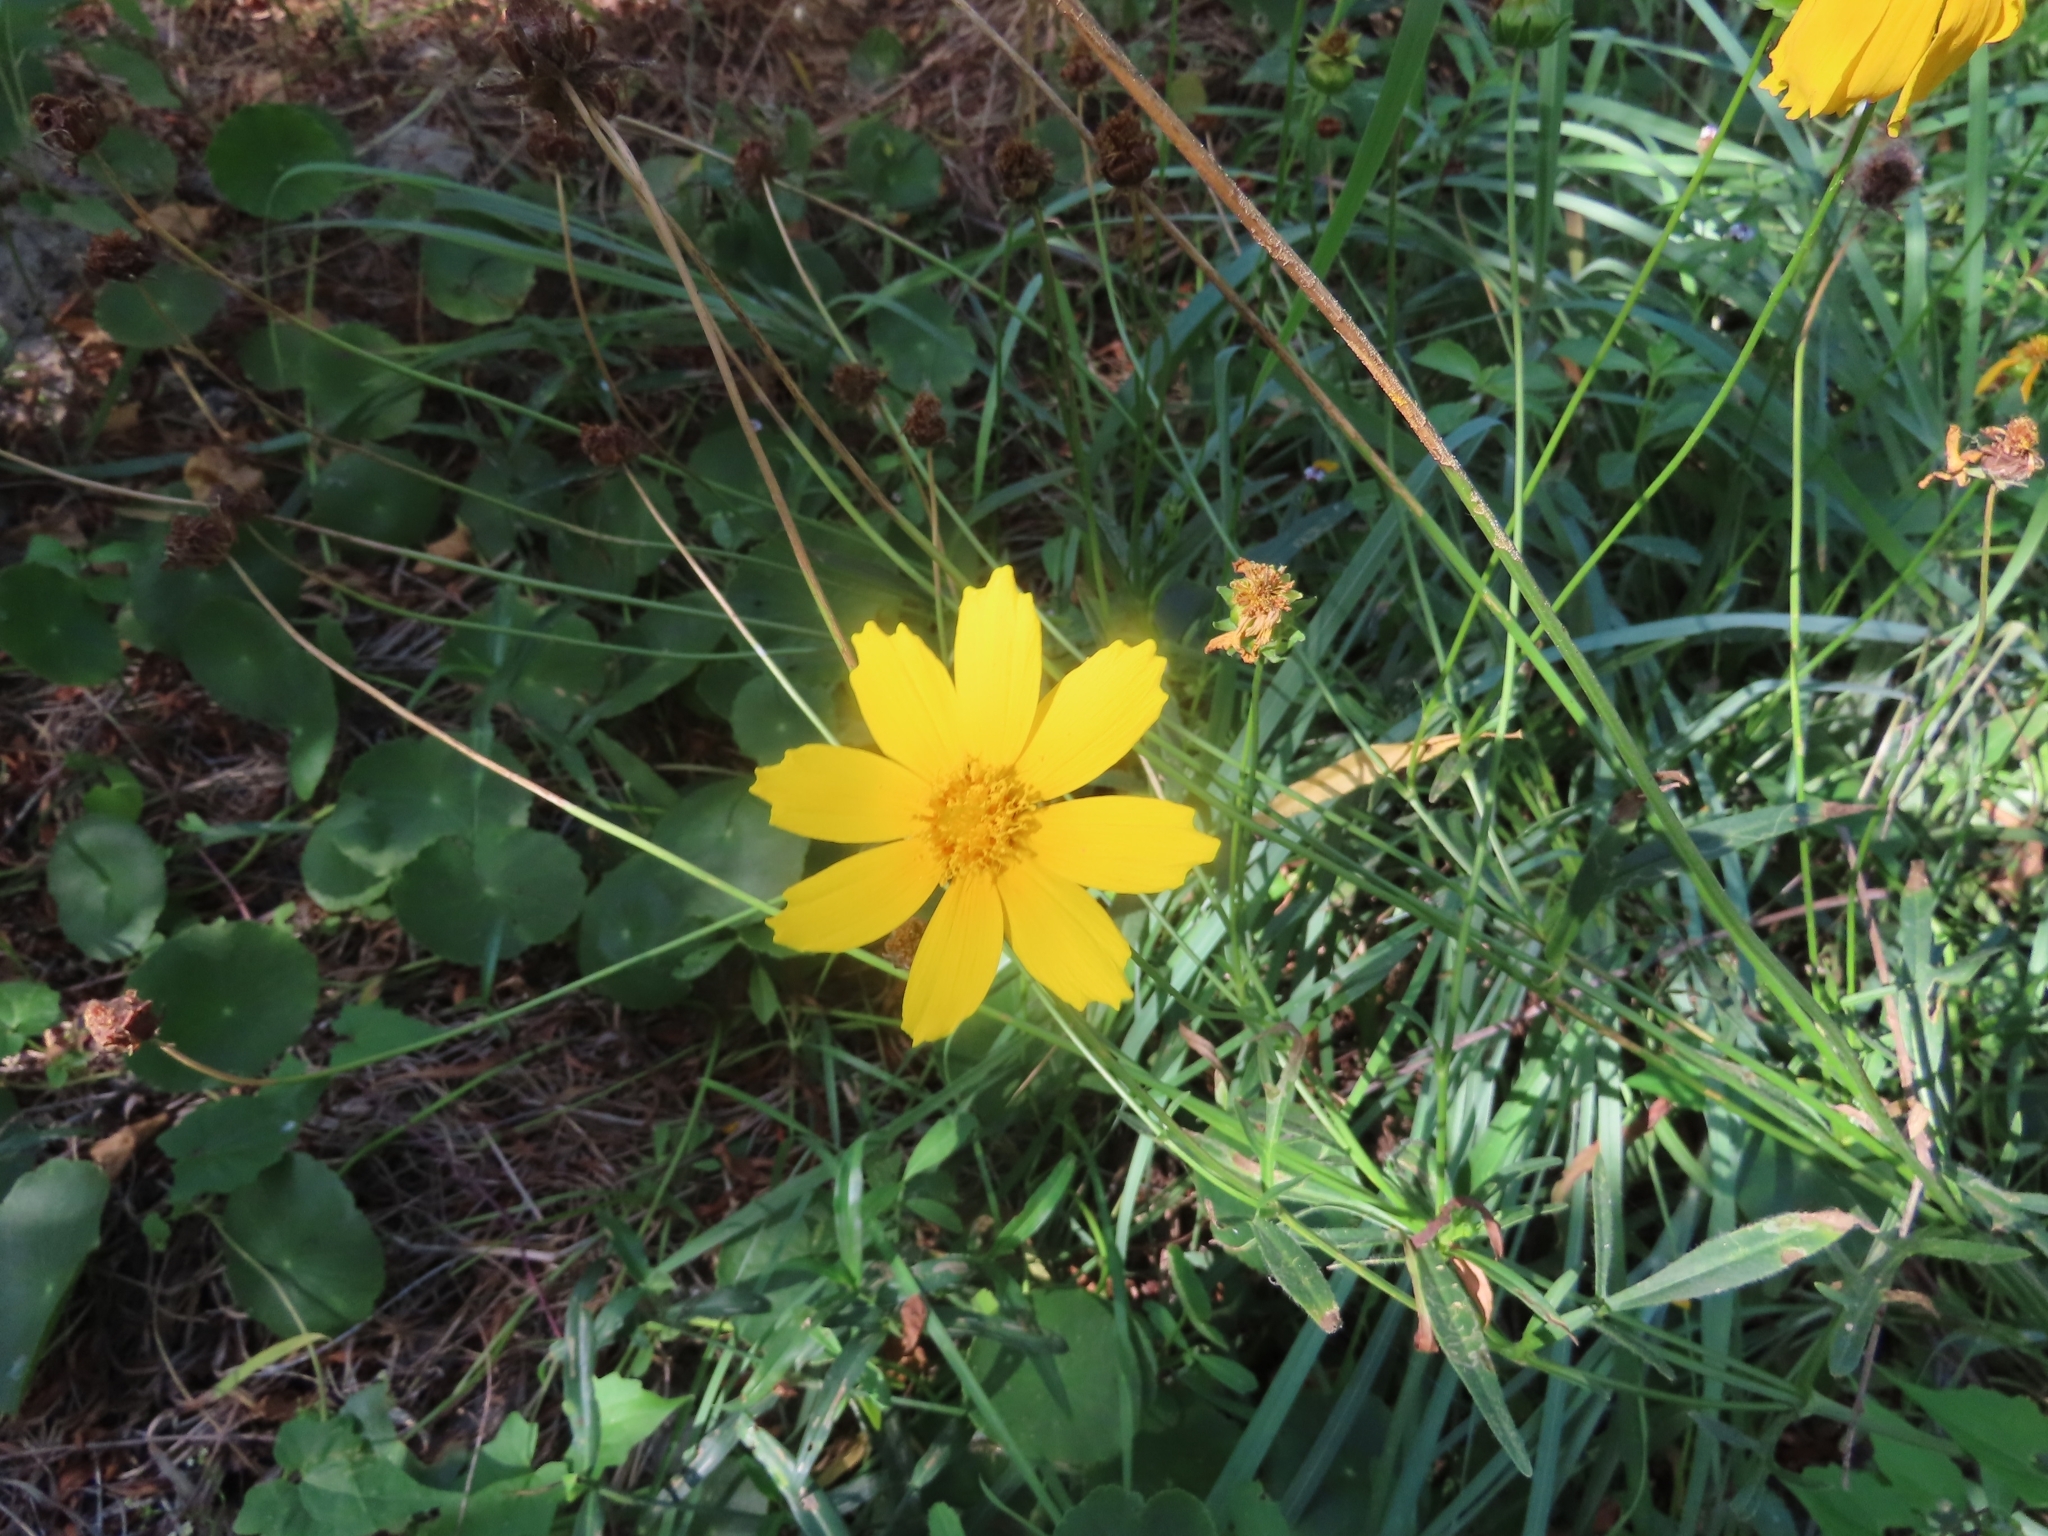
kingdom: Plantae
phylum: Tracheophyta
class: Magnoliopsida
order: Asterales
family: Asteraceae
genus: Coreopsis
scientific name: Coreopsis lanceolata
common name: Garden coreopsis
